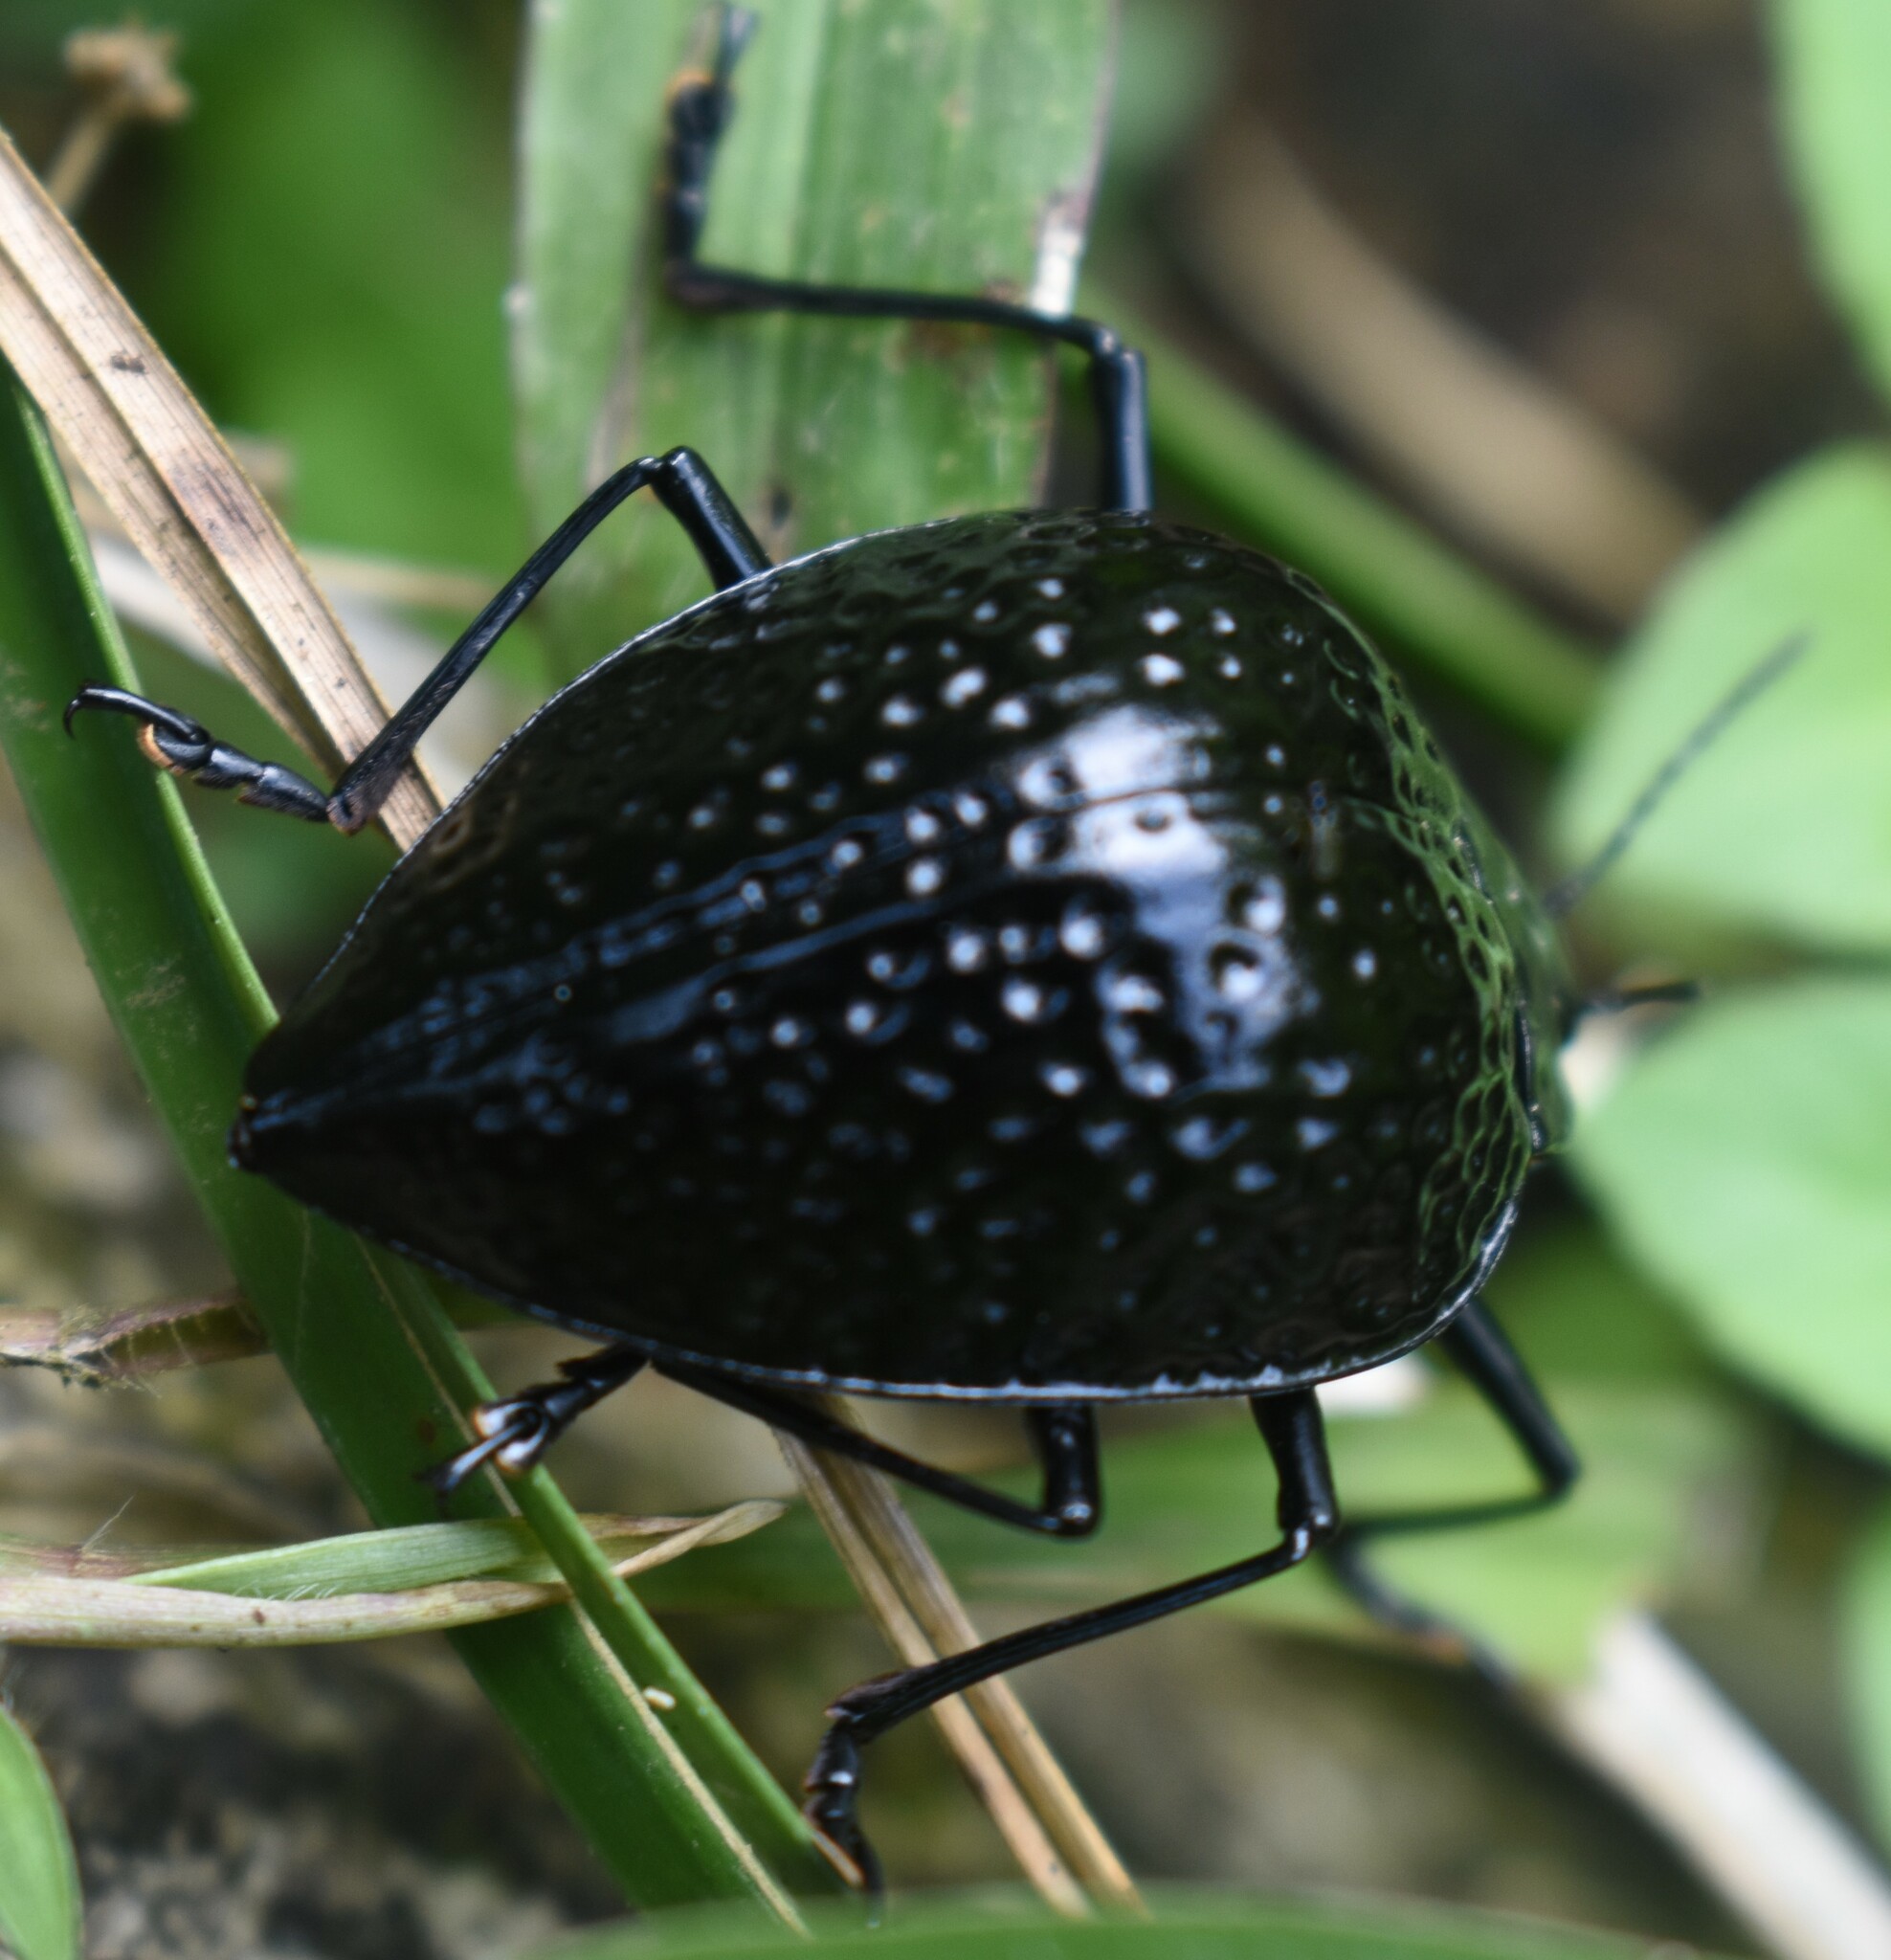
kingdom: Animalia
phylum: Arthropoda
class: Insecta
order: Coleoptera
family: Erotylidae
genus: Erotylus
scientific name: Erotylus
